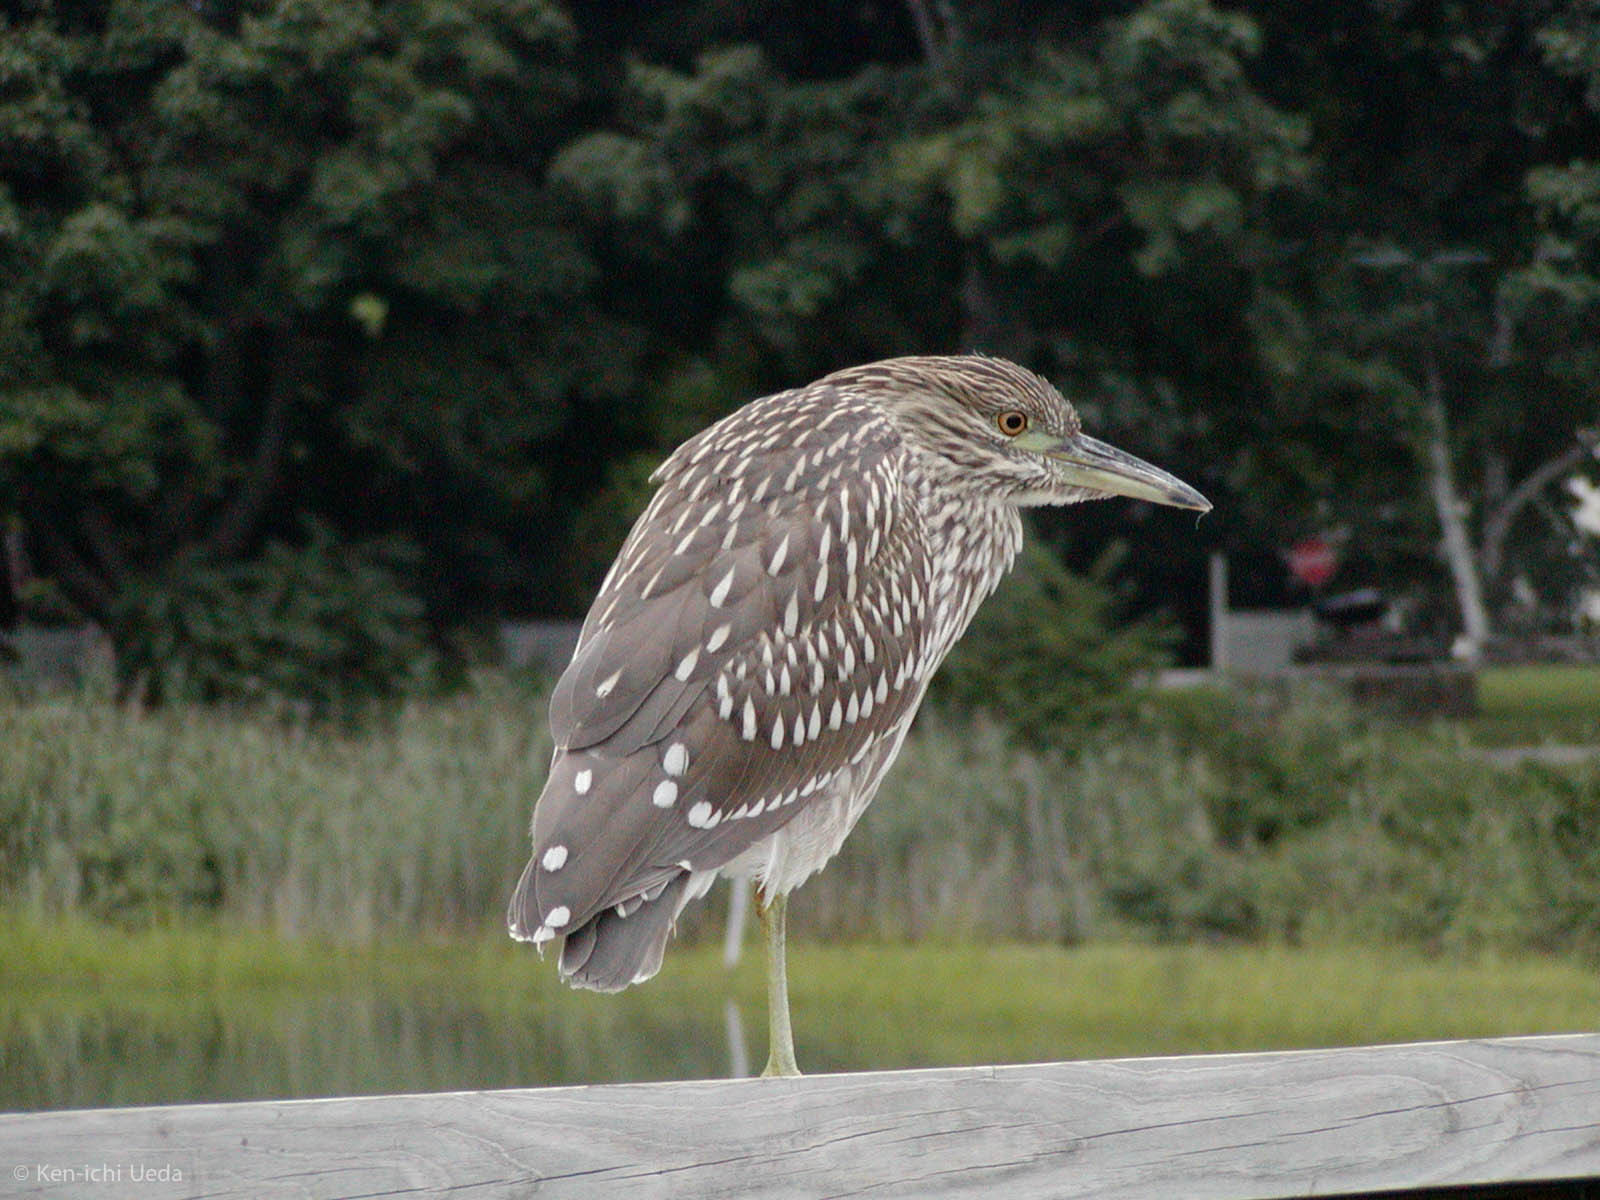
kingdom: Animalia
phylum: Chordata
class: Aves
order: Pelecaniformes
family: Ardeidae
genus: Nycticorax
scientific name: Nycticorax nycticorax
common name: Black-crowned night heron
